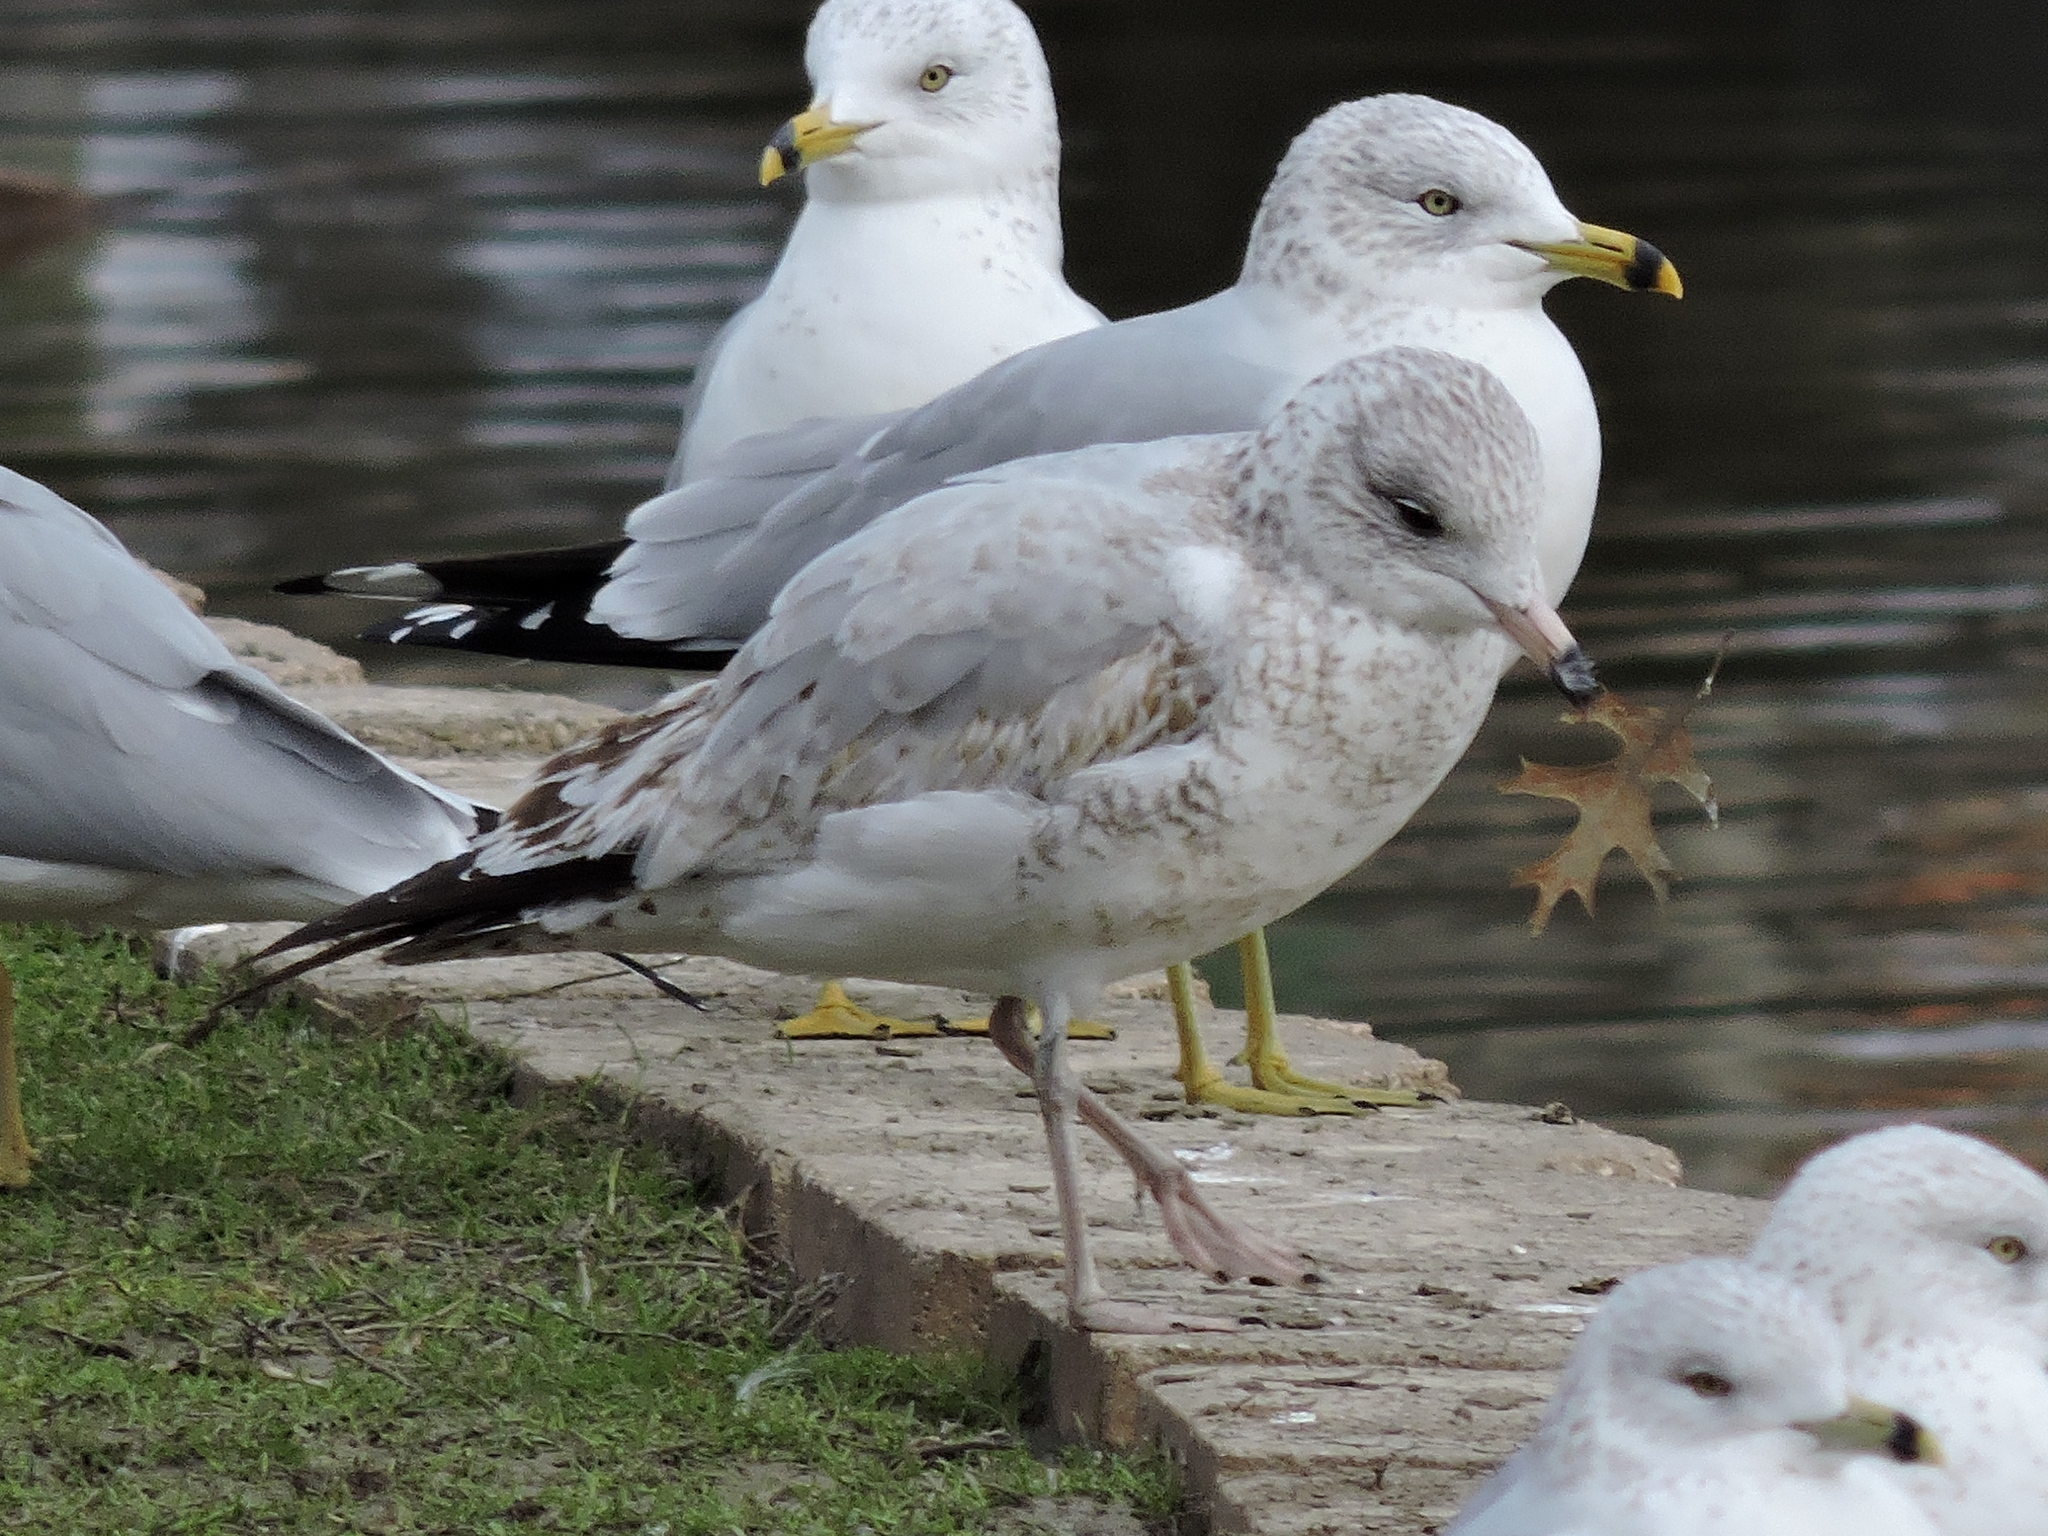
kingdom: Animalia
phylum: Chordata
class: Aves
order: Charadriiformes
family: Laridae
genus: Larus
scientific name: Larus delawarensis
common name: Ring-billed gull
